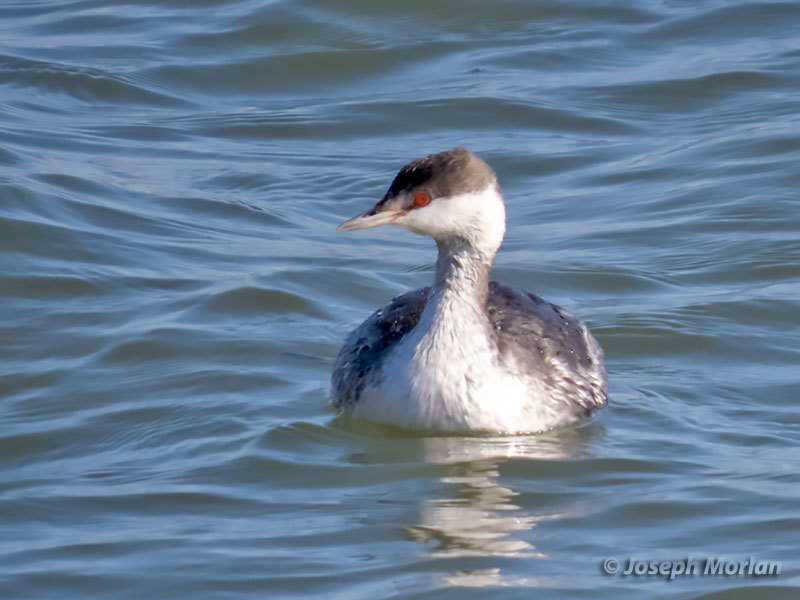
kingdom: Animalia
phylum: Chordata
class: Aves
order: Podicipediformes
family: Podicipedidae
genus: Podiceps
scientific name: Podiceps auritus
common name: Horned grebe
